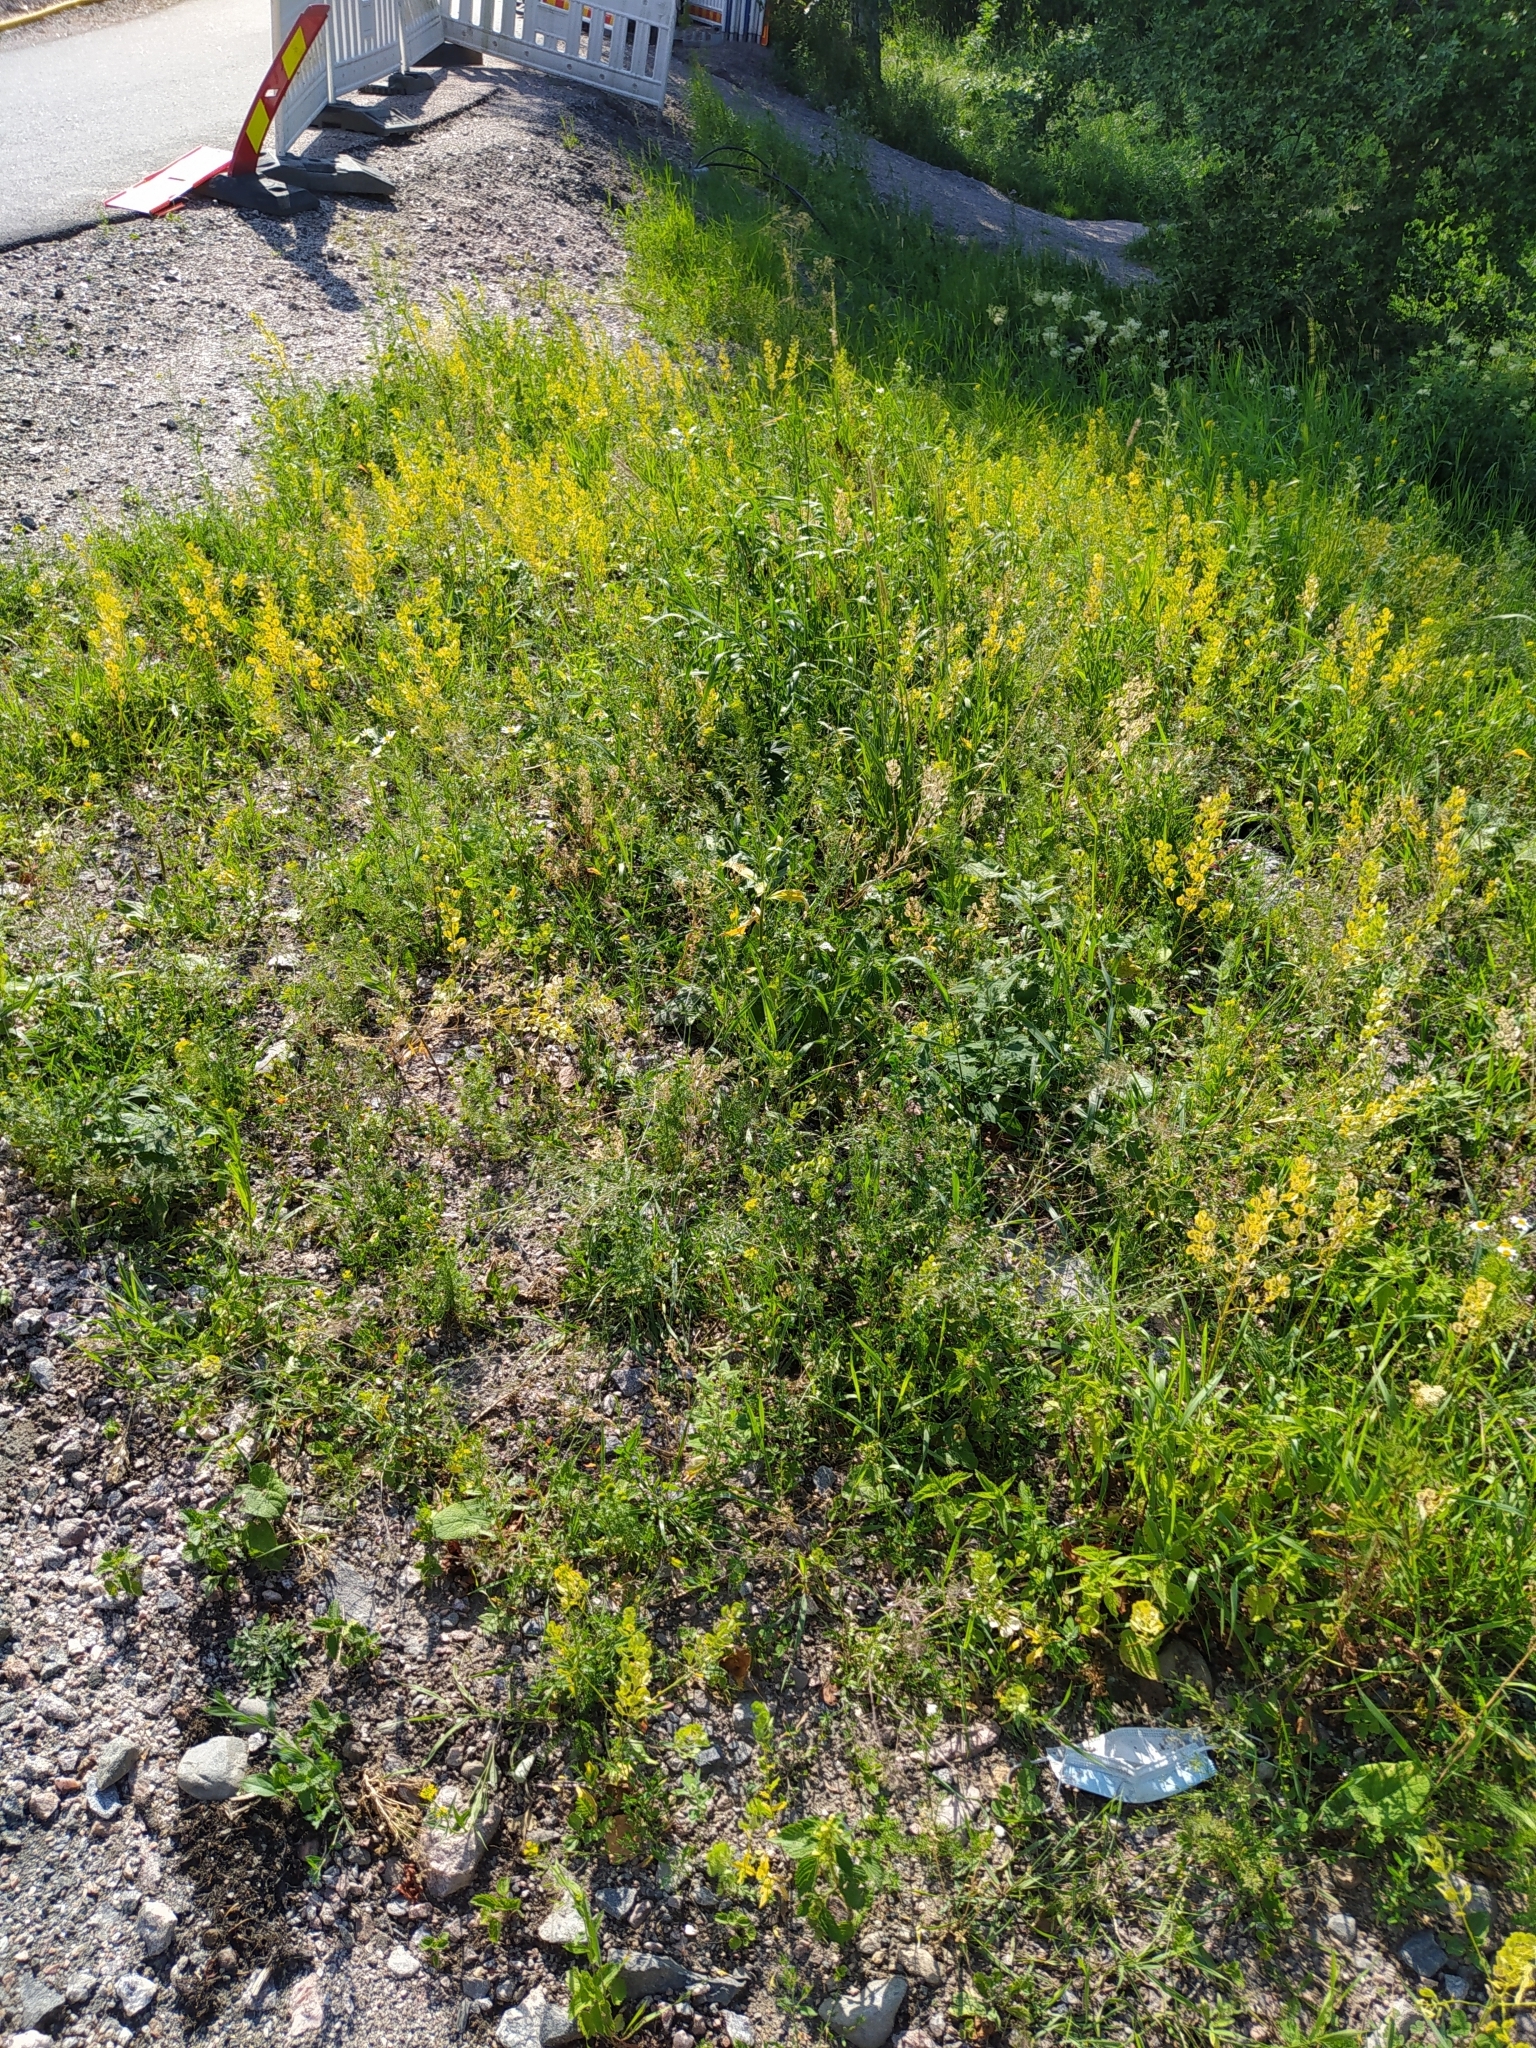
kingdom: Plantae
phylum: Tracheophyta
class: Magnoliopsida
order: Brassicales
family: Brassicaceae
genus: Thlaspi
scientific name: Thlaspi arvense
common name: Field pennycress
